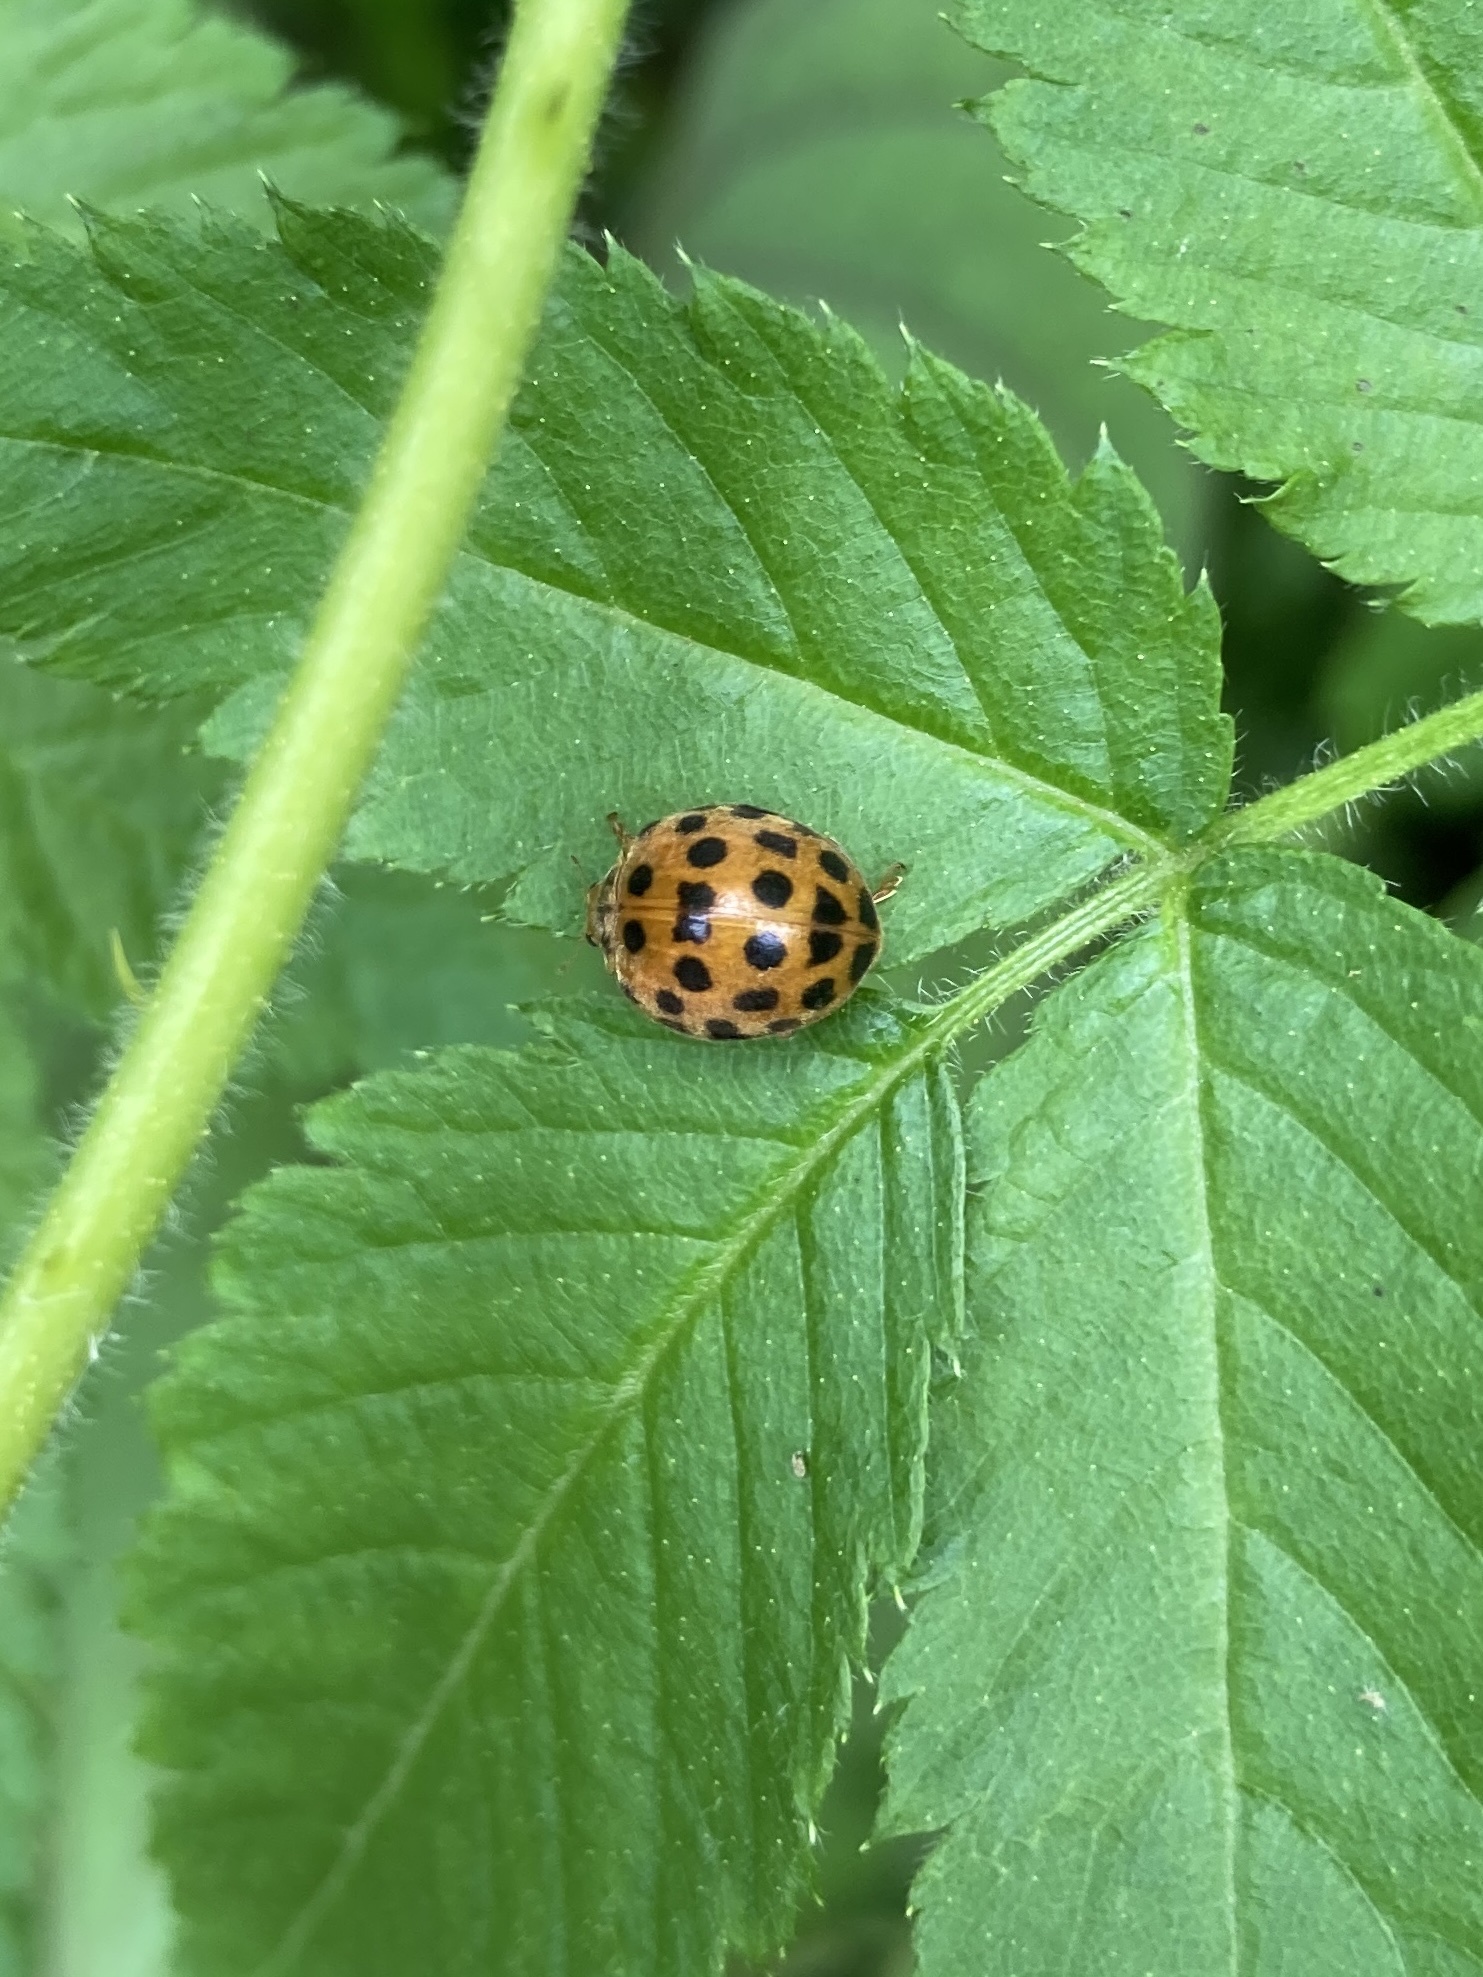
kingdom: Animalia
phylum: Arthropoda
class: Insecta
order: Coleoptera
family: Coccinellidae
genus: Henosepilachna
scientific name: Henosepilachna vigintioctopunctata
